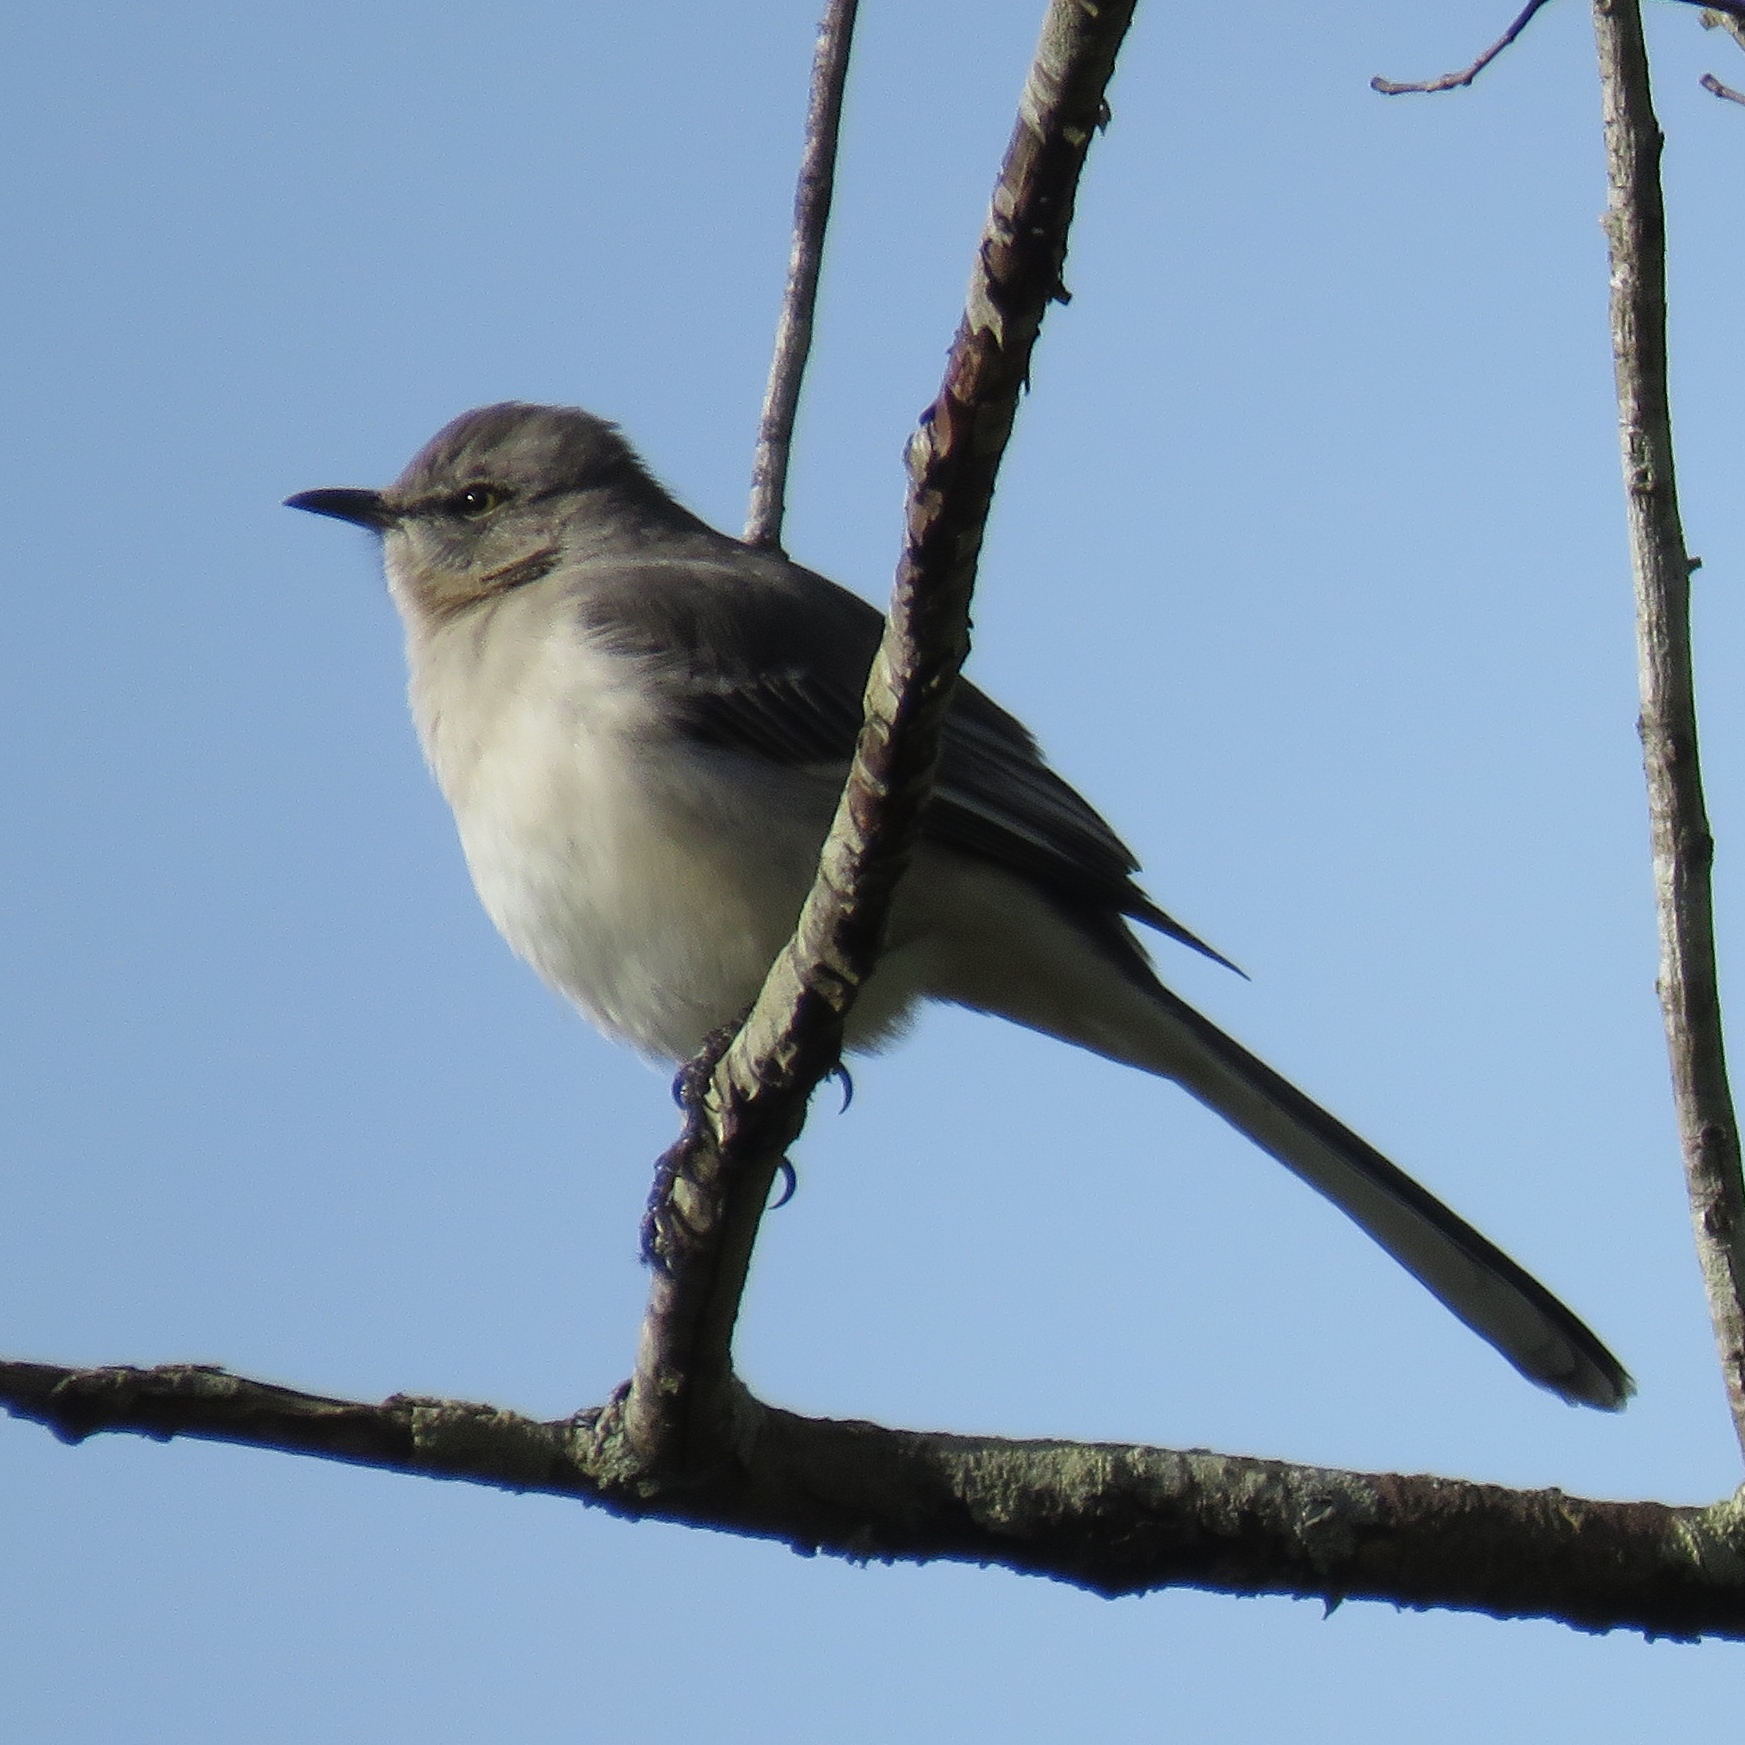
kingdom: Animalia
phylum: Chordata
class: Aves
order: Passeriformes
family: Mimidae
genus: Mimus
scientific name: Mimus polyglottos
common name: Northern mockingbird
